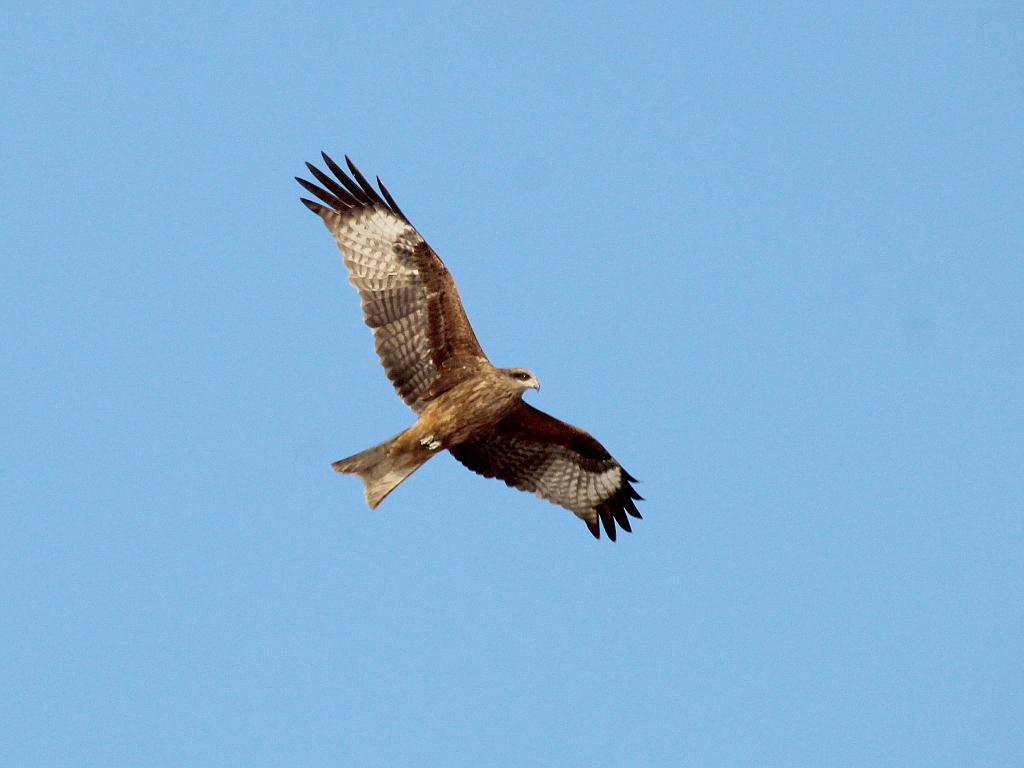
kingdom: Animalia
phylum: Chordata
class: Aves
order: Accipitriformes
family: Accipitridae
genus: Milvus
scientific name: Milvus migrans
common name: Black kite
